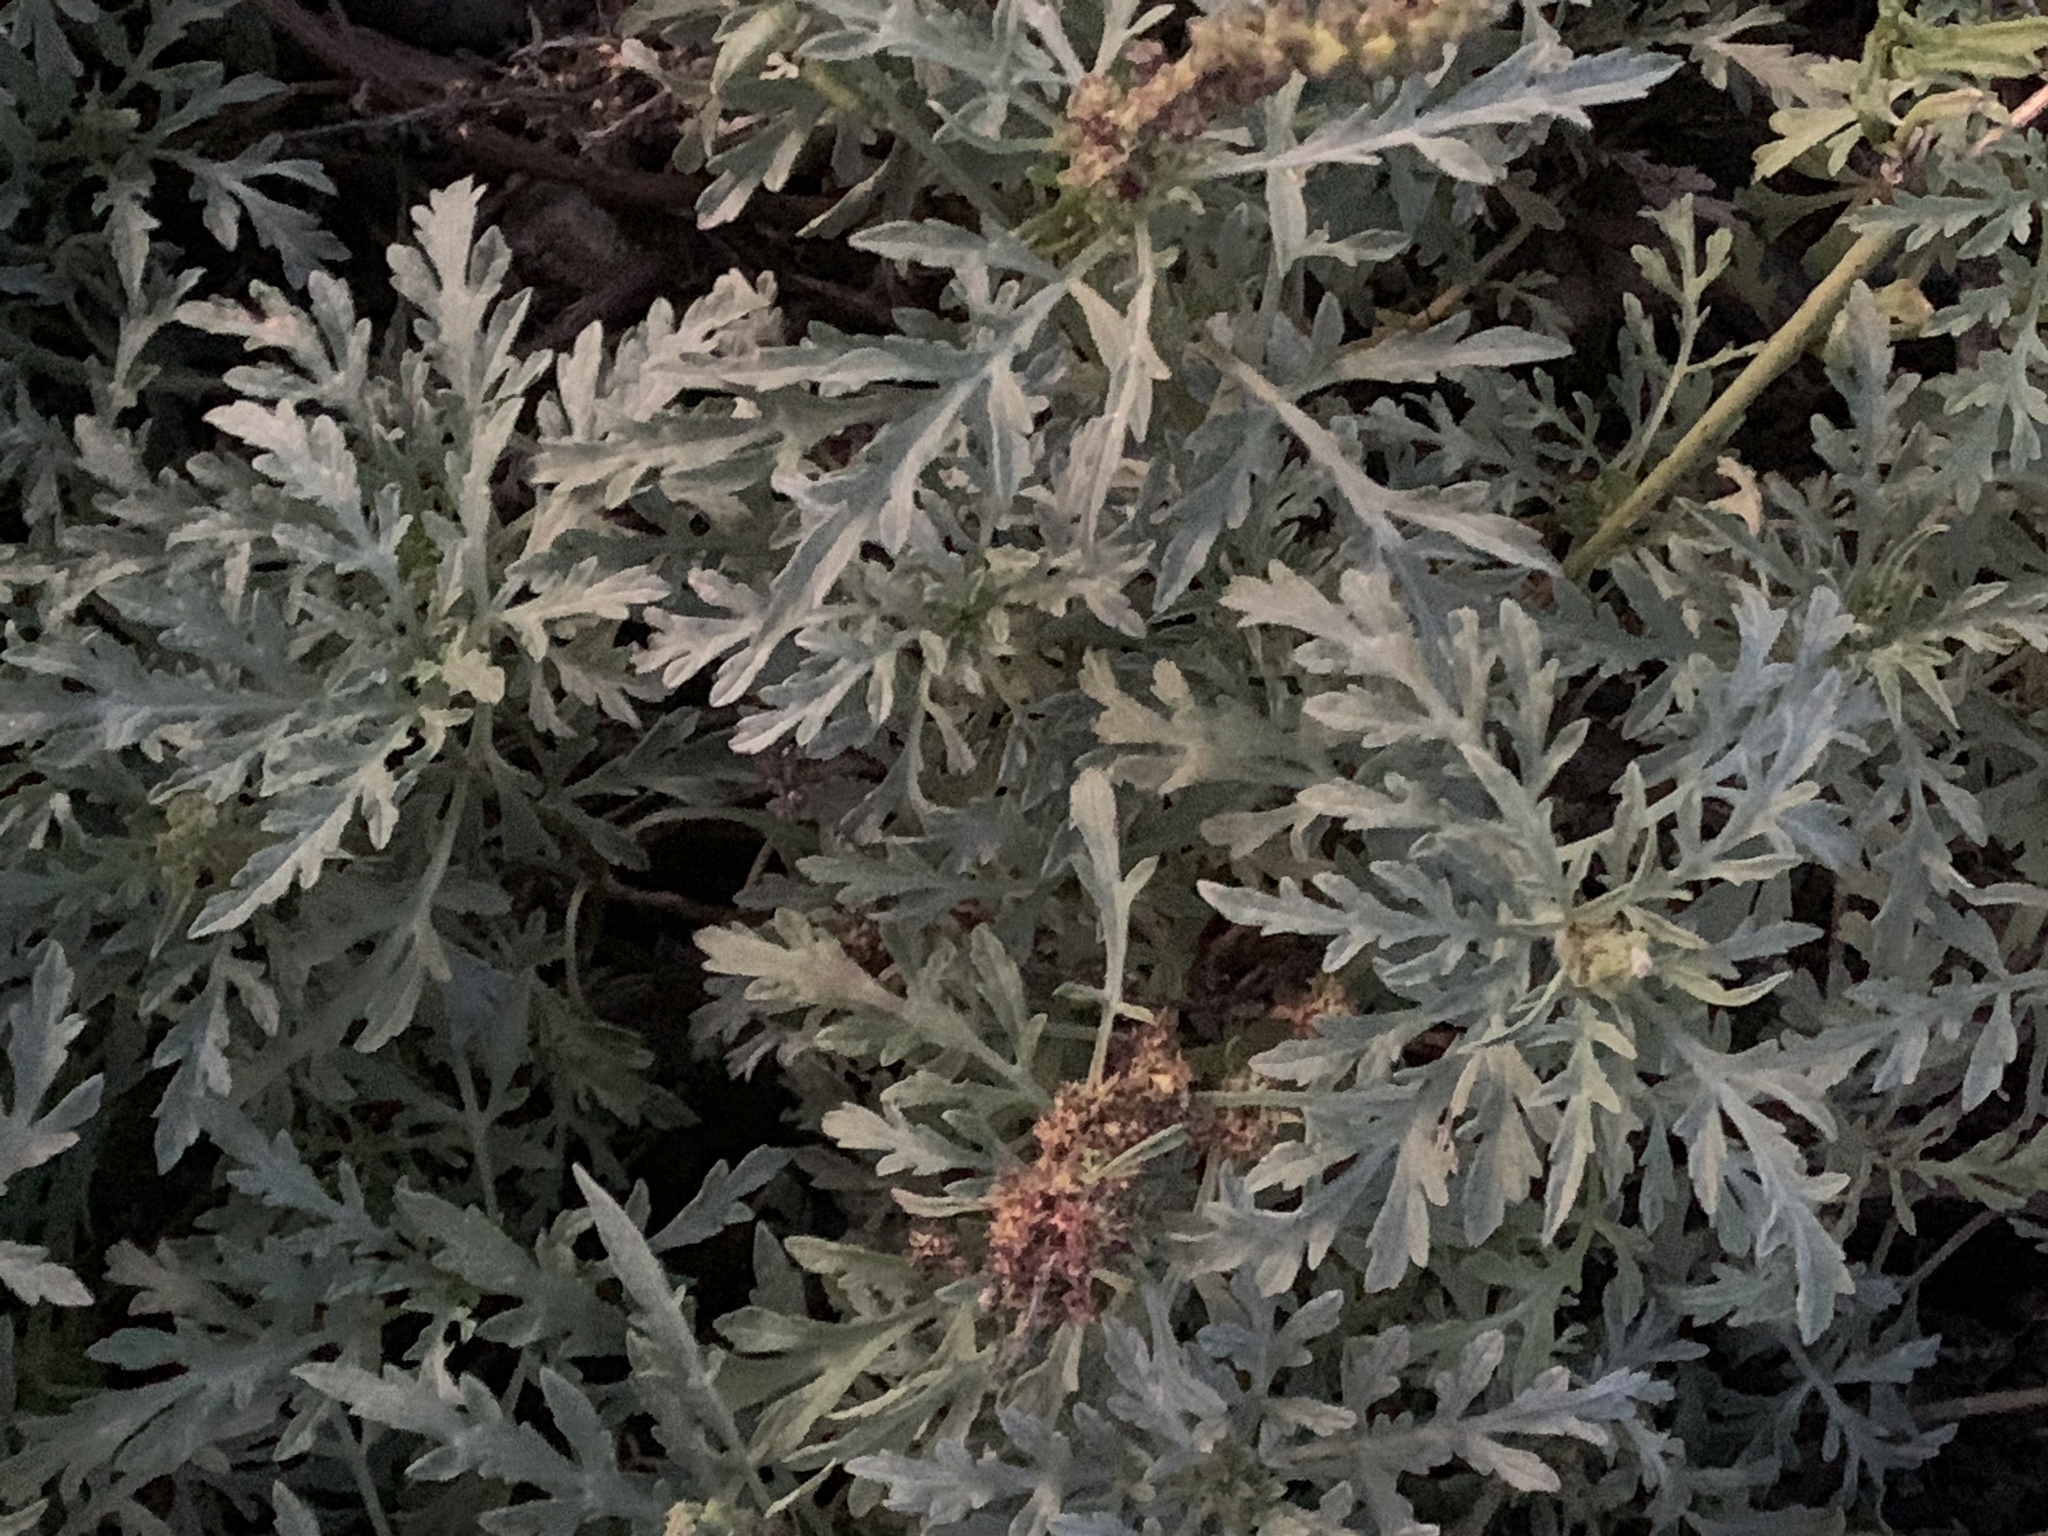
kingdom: Plantae
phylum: Tracheophyta
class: Magnoliopsida
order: Asterales
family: Asteraceae
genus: Ambrosia
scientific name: Ambrosia chamissonis
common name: Beachbur
